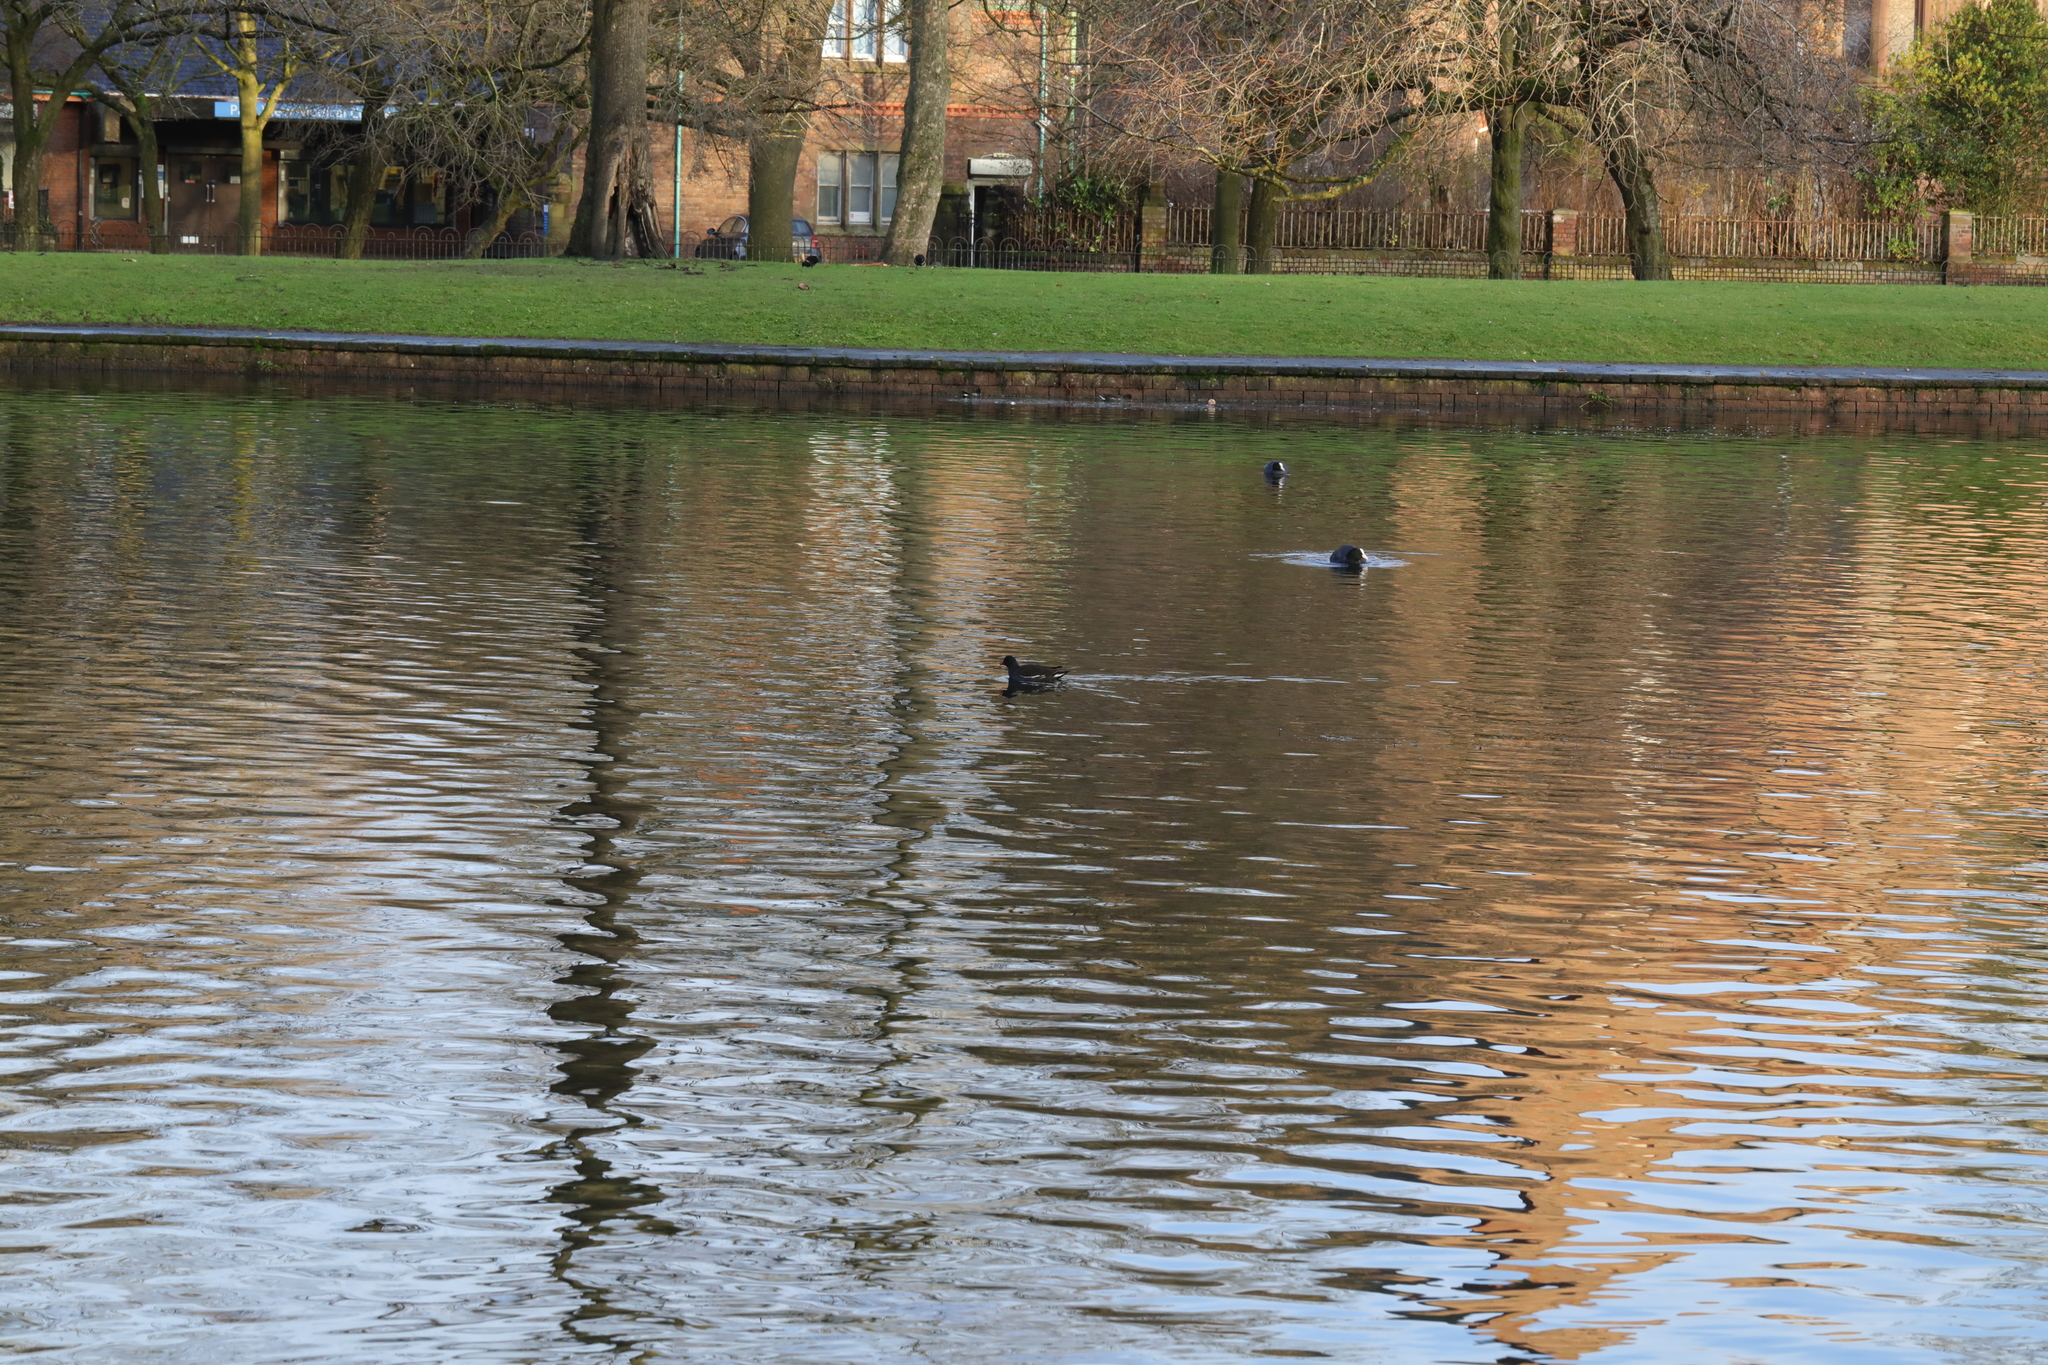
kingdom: Animalia
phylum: Chordata
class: Aves
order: Gruiformes
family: Rallidae
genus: Gallinula
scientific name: Gallinula chloropus
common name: Common moorhen
